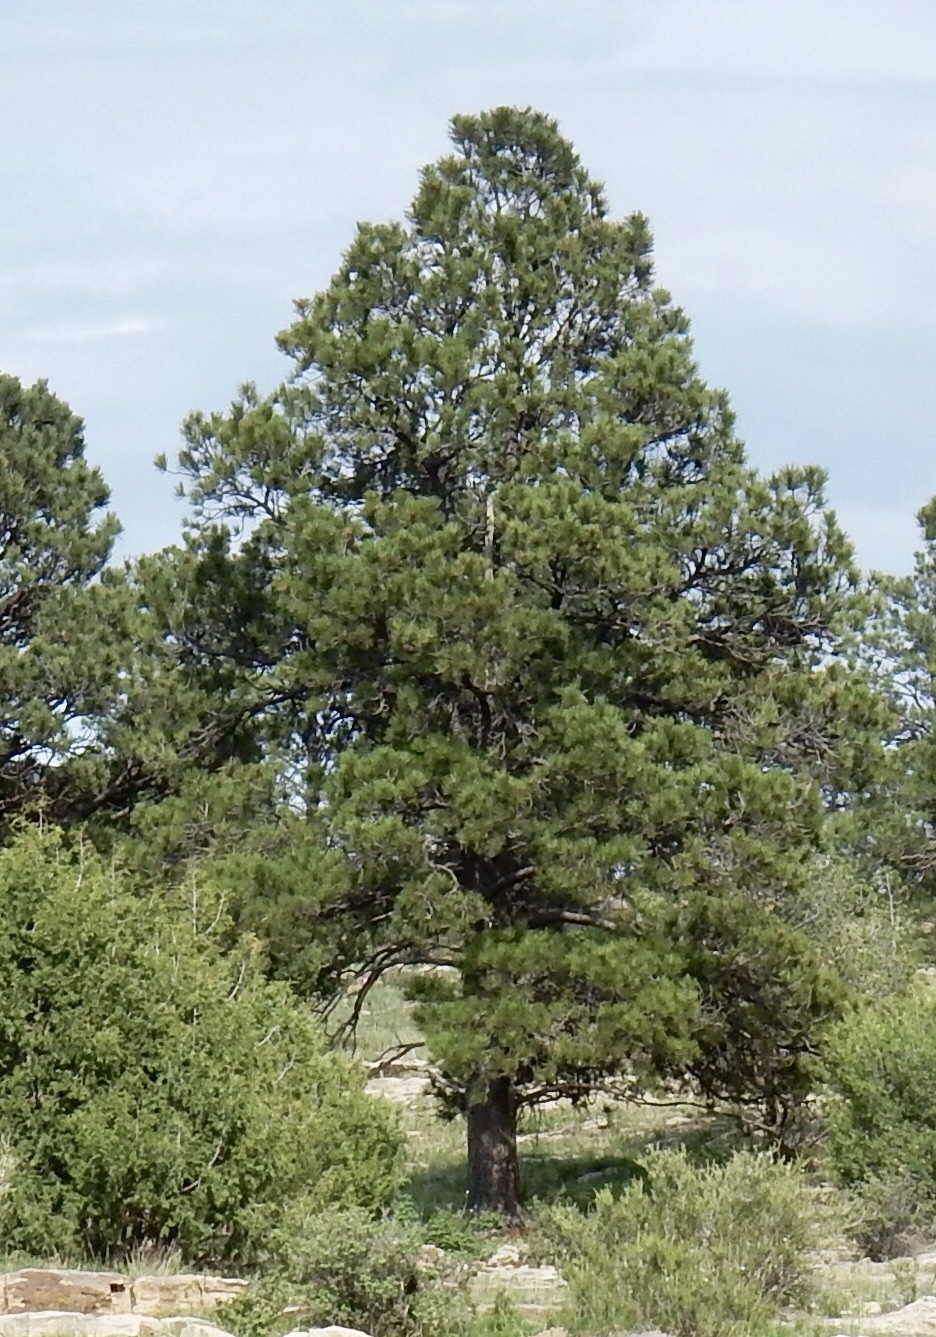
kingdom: Plantae
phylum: Tracheophyta
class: Pinopsida
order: Pinales
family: Pinaceae
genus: Pinus
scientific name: Pinus ponderosa
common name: Western yellow-pine
